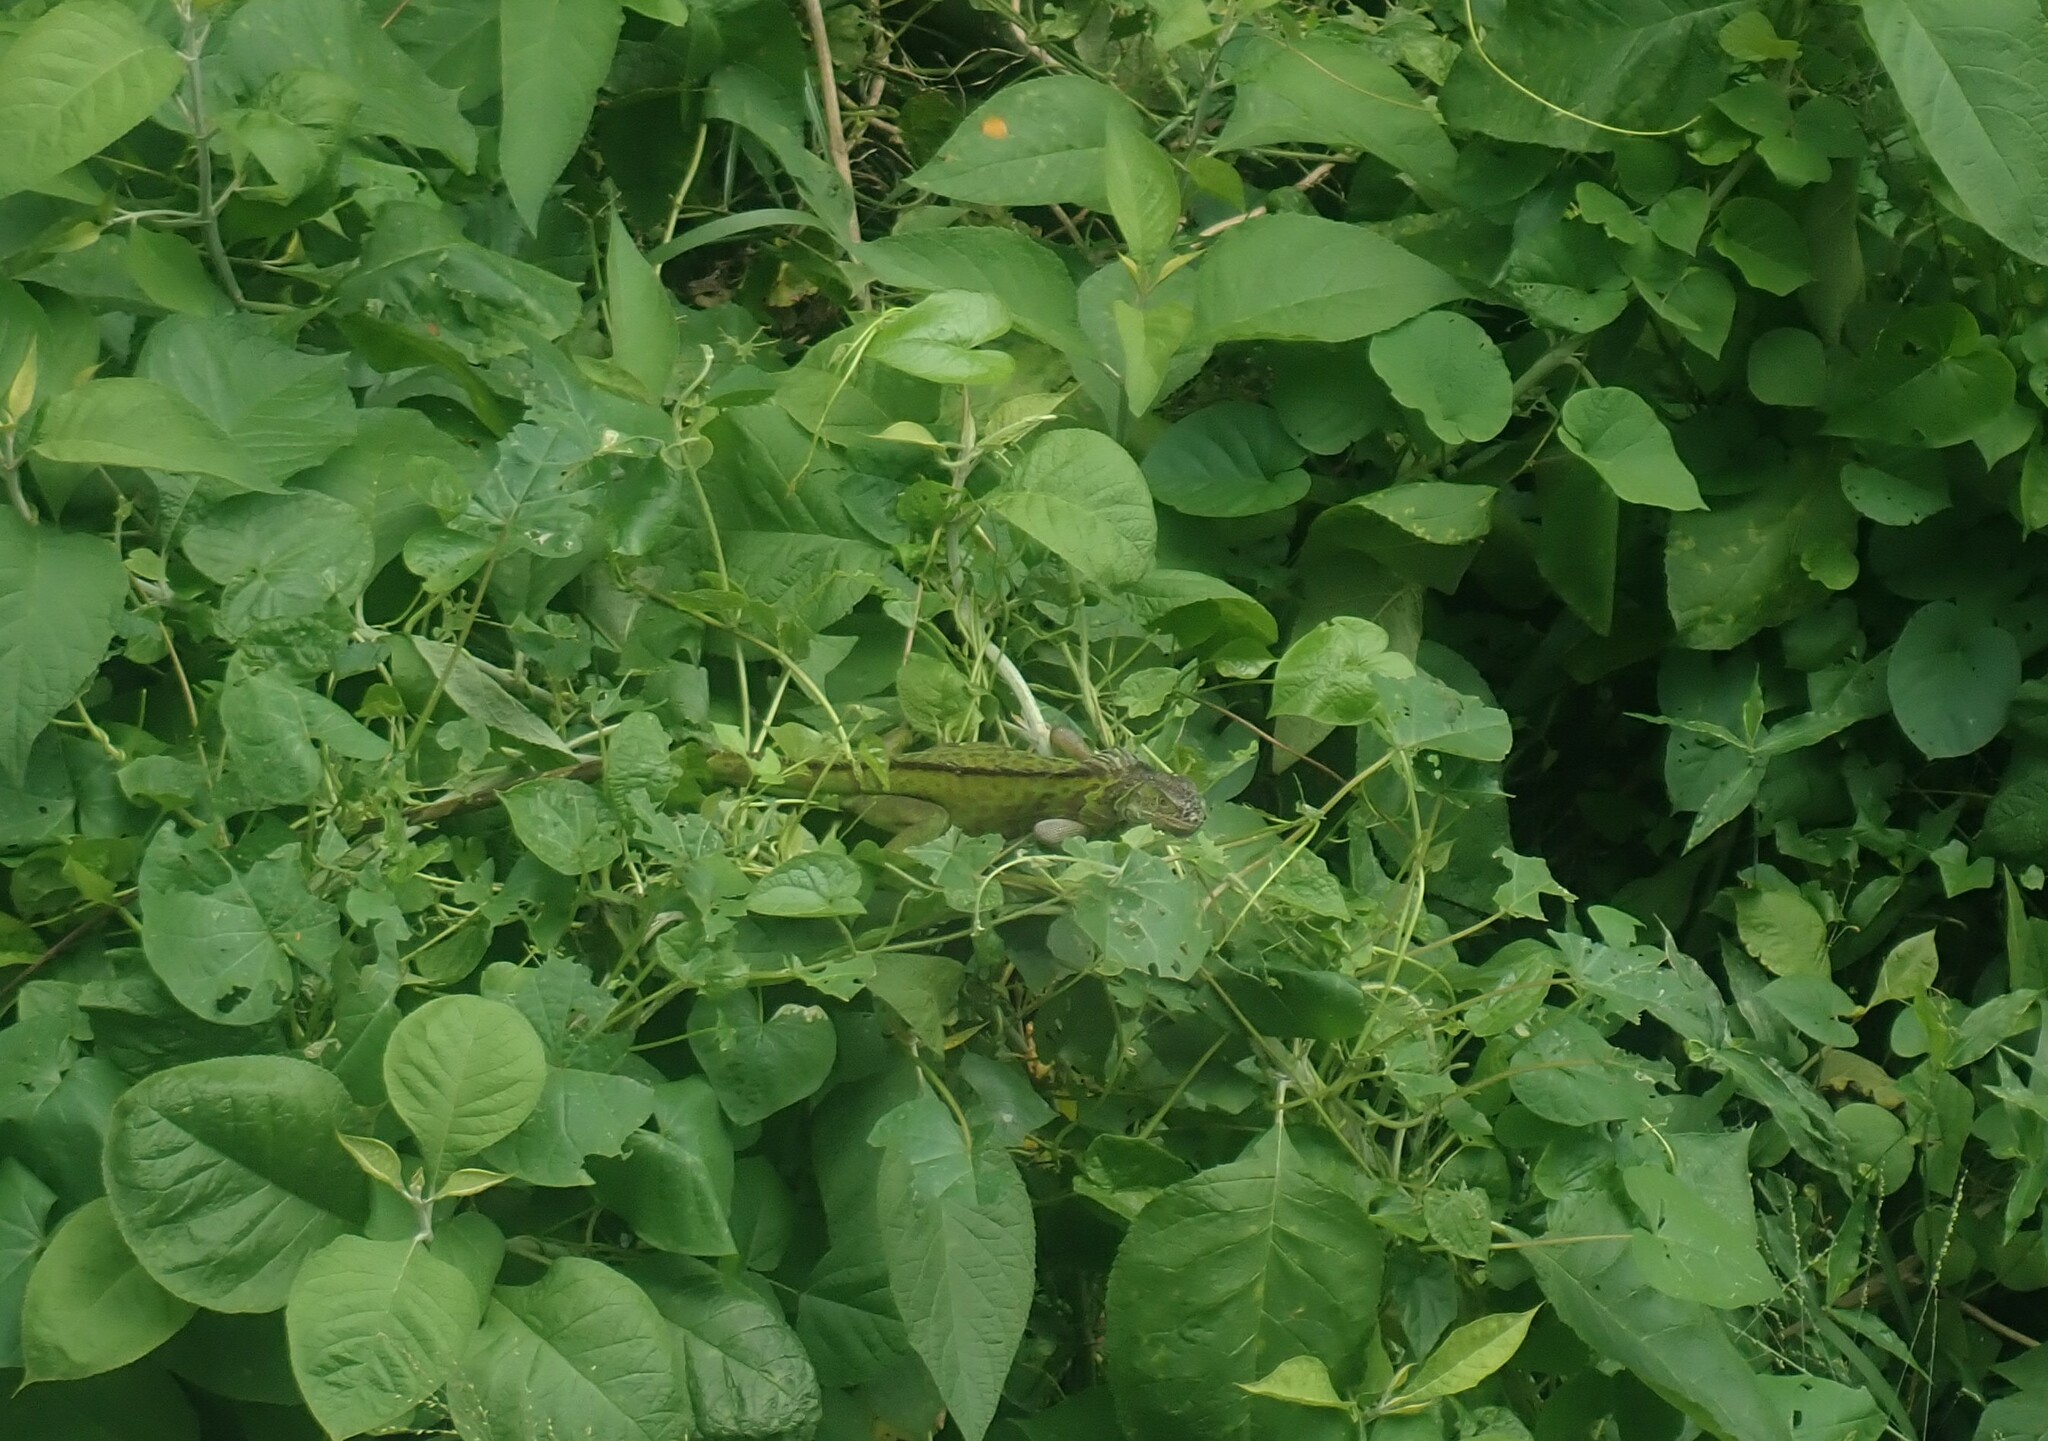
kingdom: Animalia
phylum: Chordata
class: Squamata
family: Iguanidae
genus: Iguana
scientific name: Iguana iguana
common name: Green iguana
